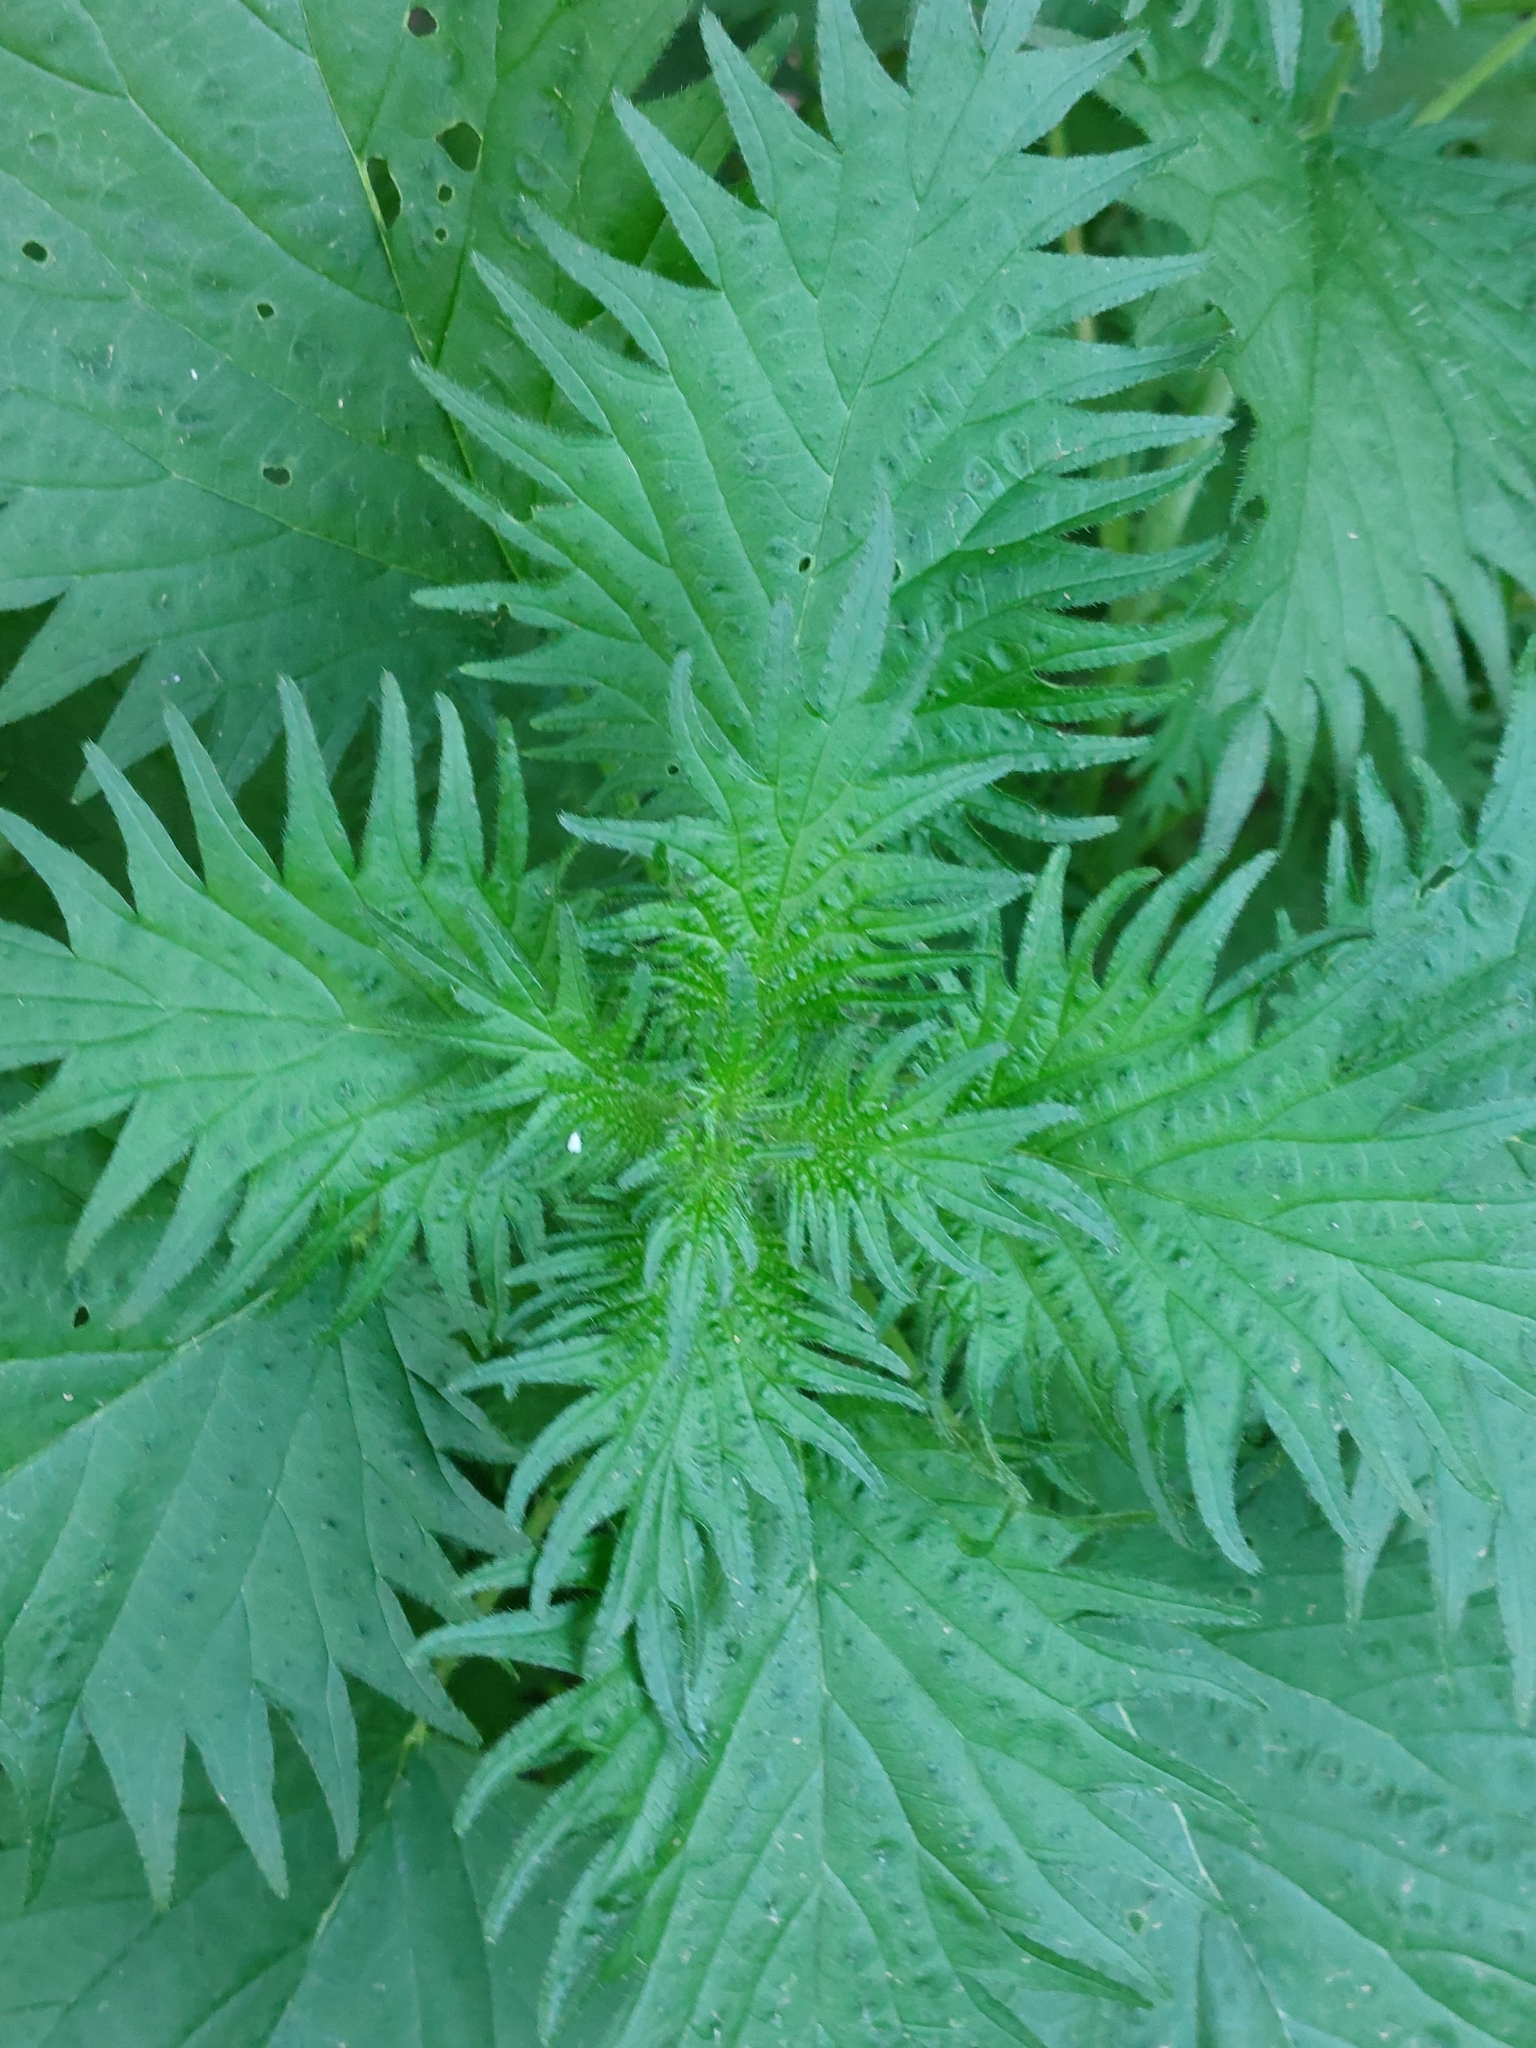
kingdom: Plantae
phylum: Tracheophyta
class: Magnoliopsida
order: Rosales
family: Urticaceae
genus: Urtica
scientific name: Urtica pilulifera
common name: Roman nettle
